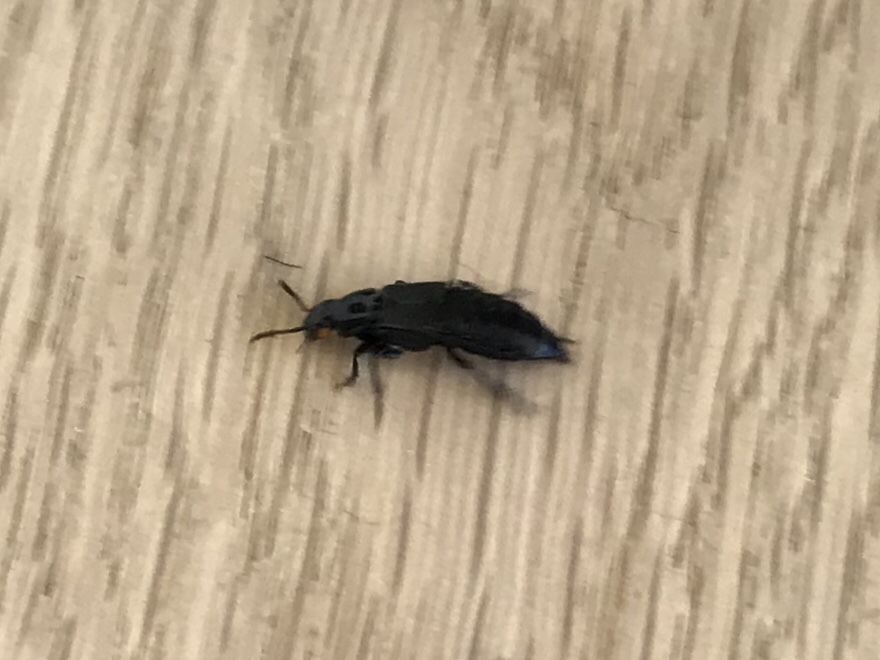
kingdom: Animalia
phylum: Arthropoda
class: Insecta
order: Coleoptera
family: Staphylinidae
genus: Creophilus
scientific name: Creophilus oculatus
